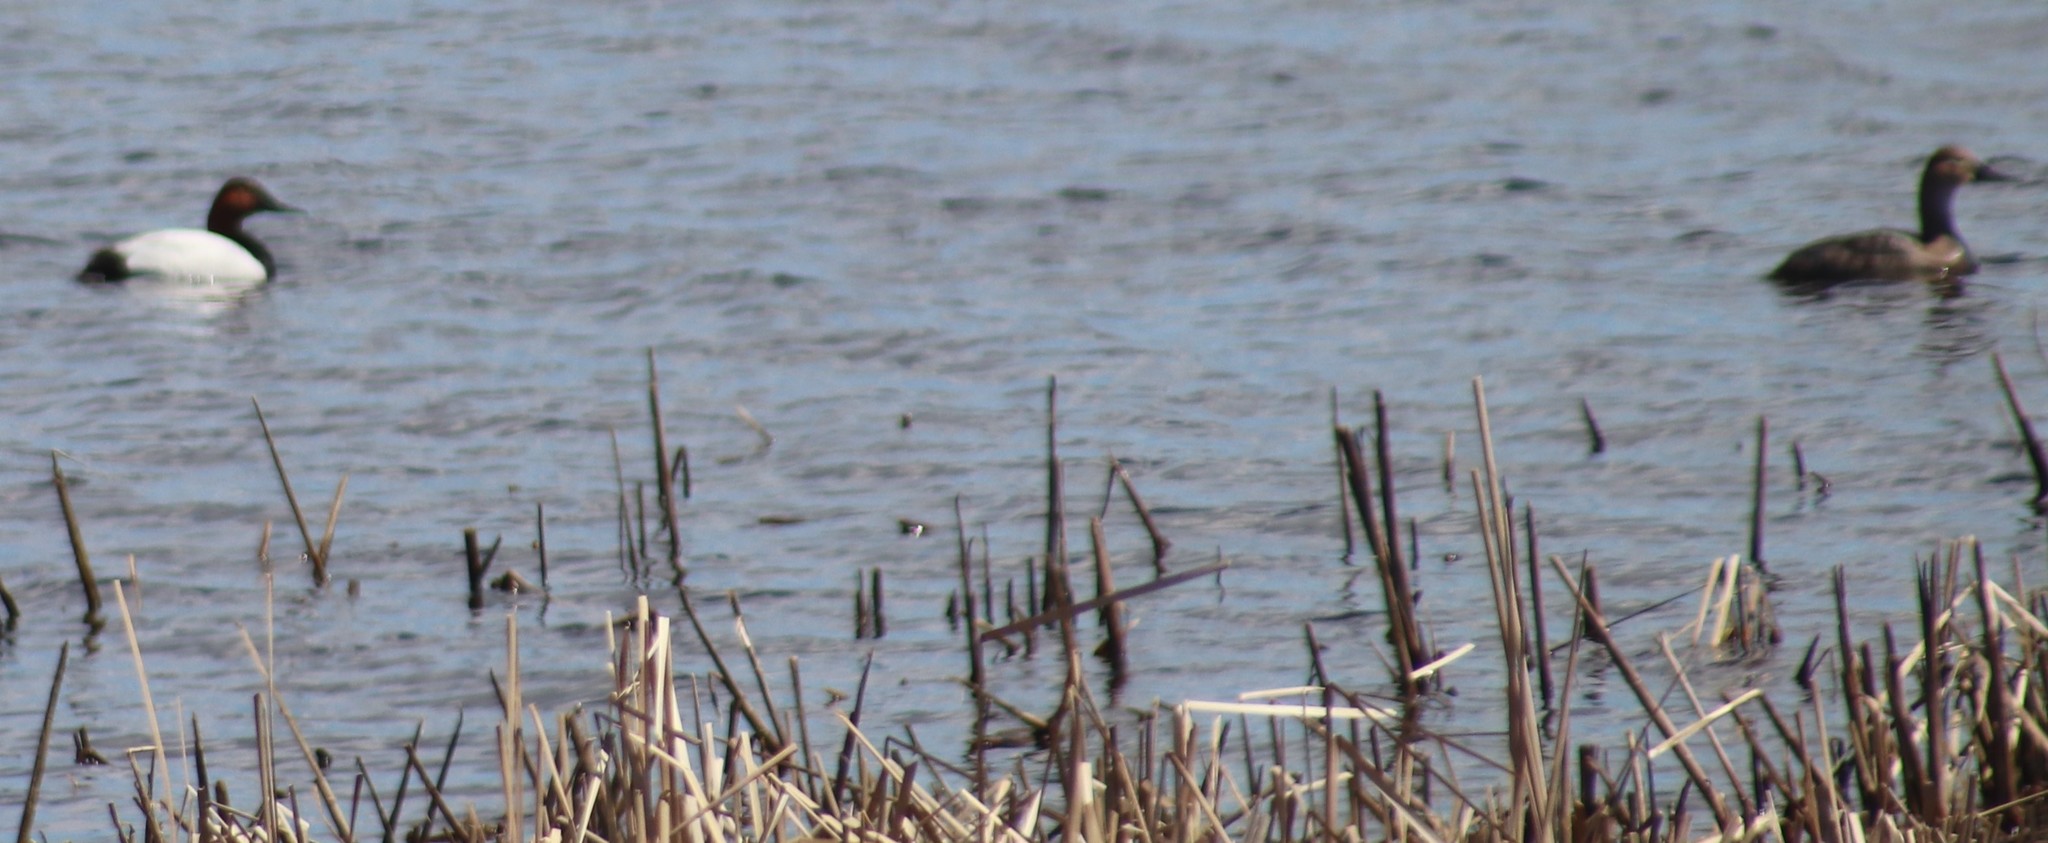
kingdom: Animalia
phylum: Chordata
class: Aves
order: Anseriformes
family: Anatidae
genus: Aythya
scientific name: Aythya valisineria
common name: Canvasback
